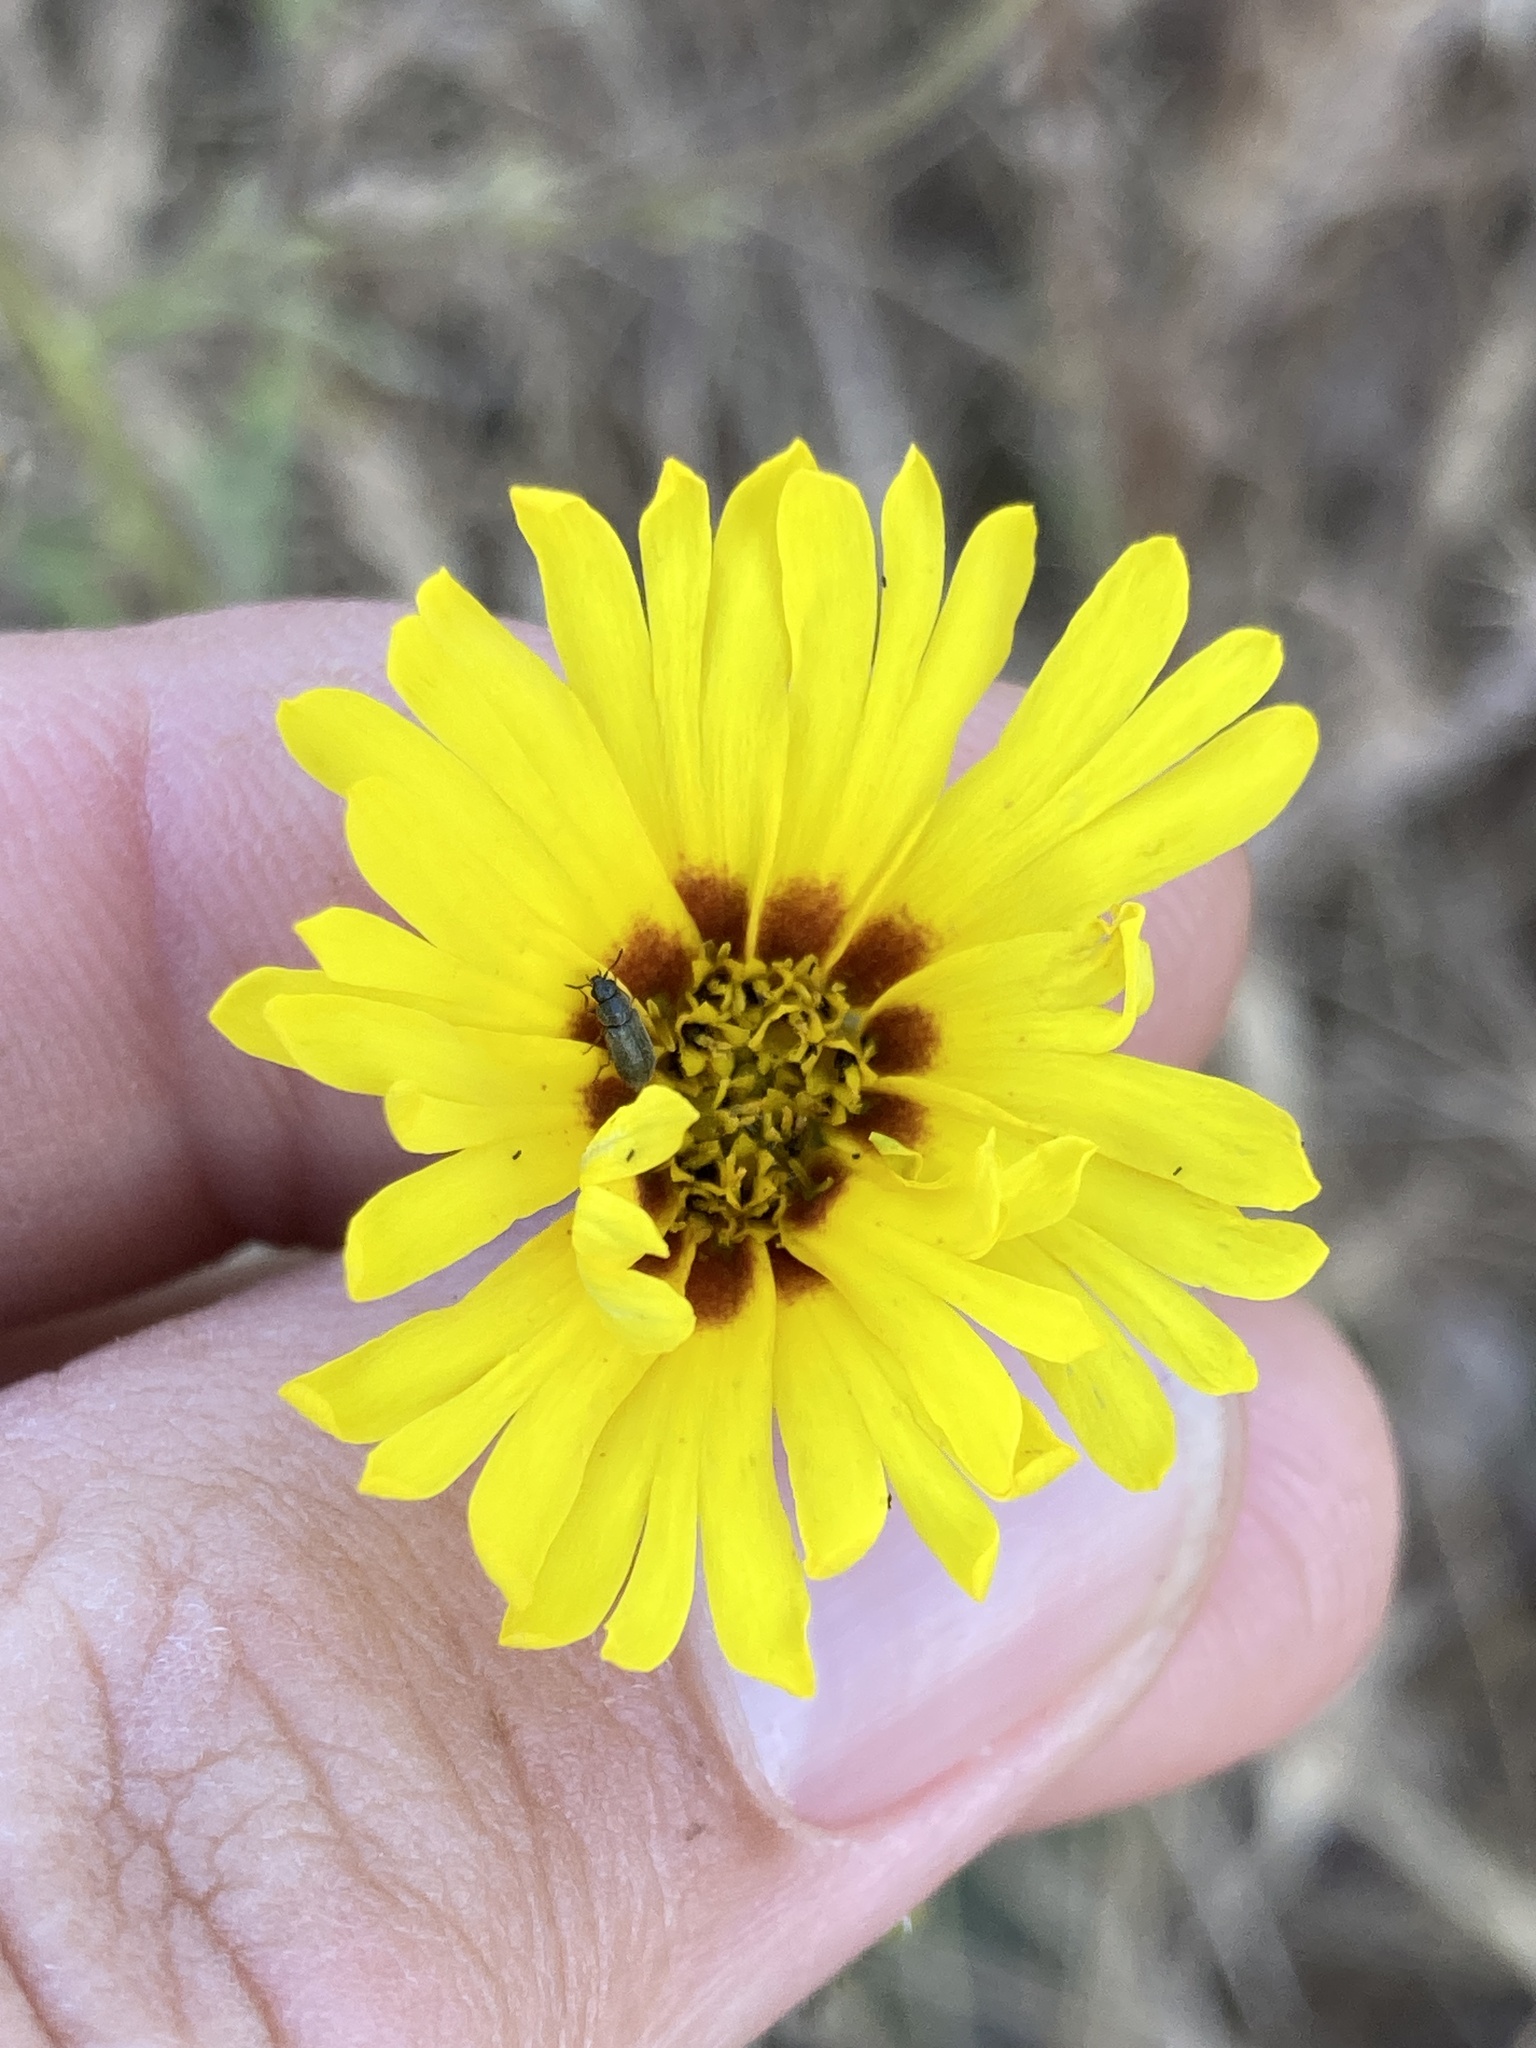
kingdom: Plantae
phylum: Tracheophyta
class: Magnoliopsida
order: Asterales
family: Asteraceae
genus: Madia
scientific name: Madia elegans
